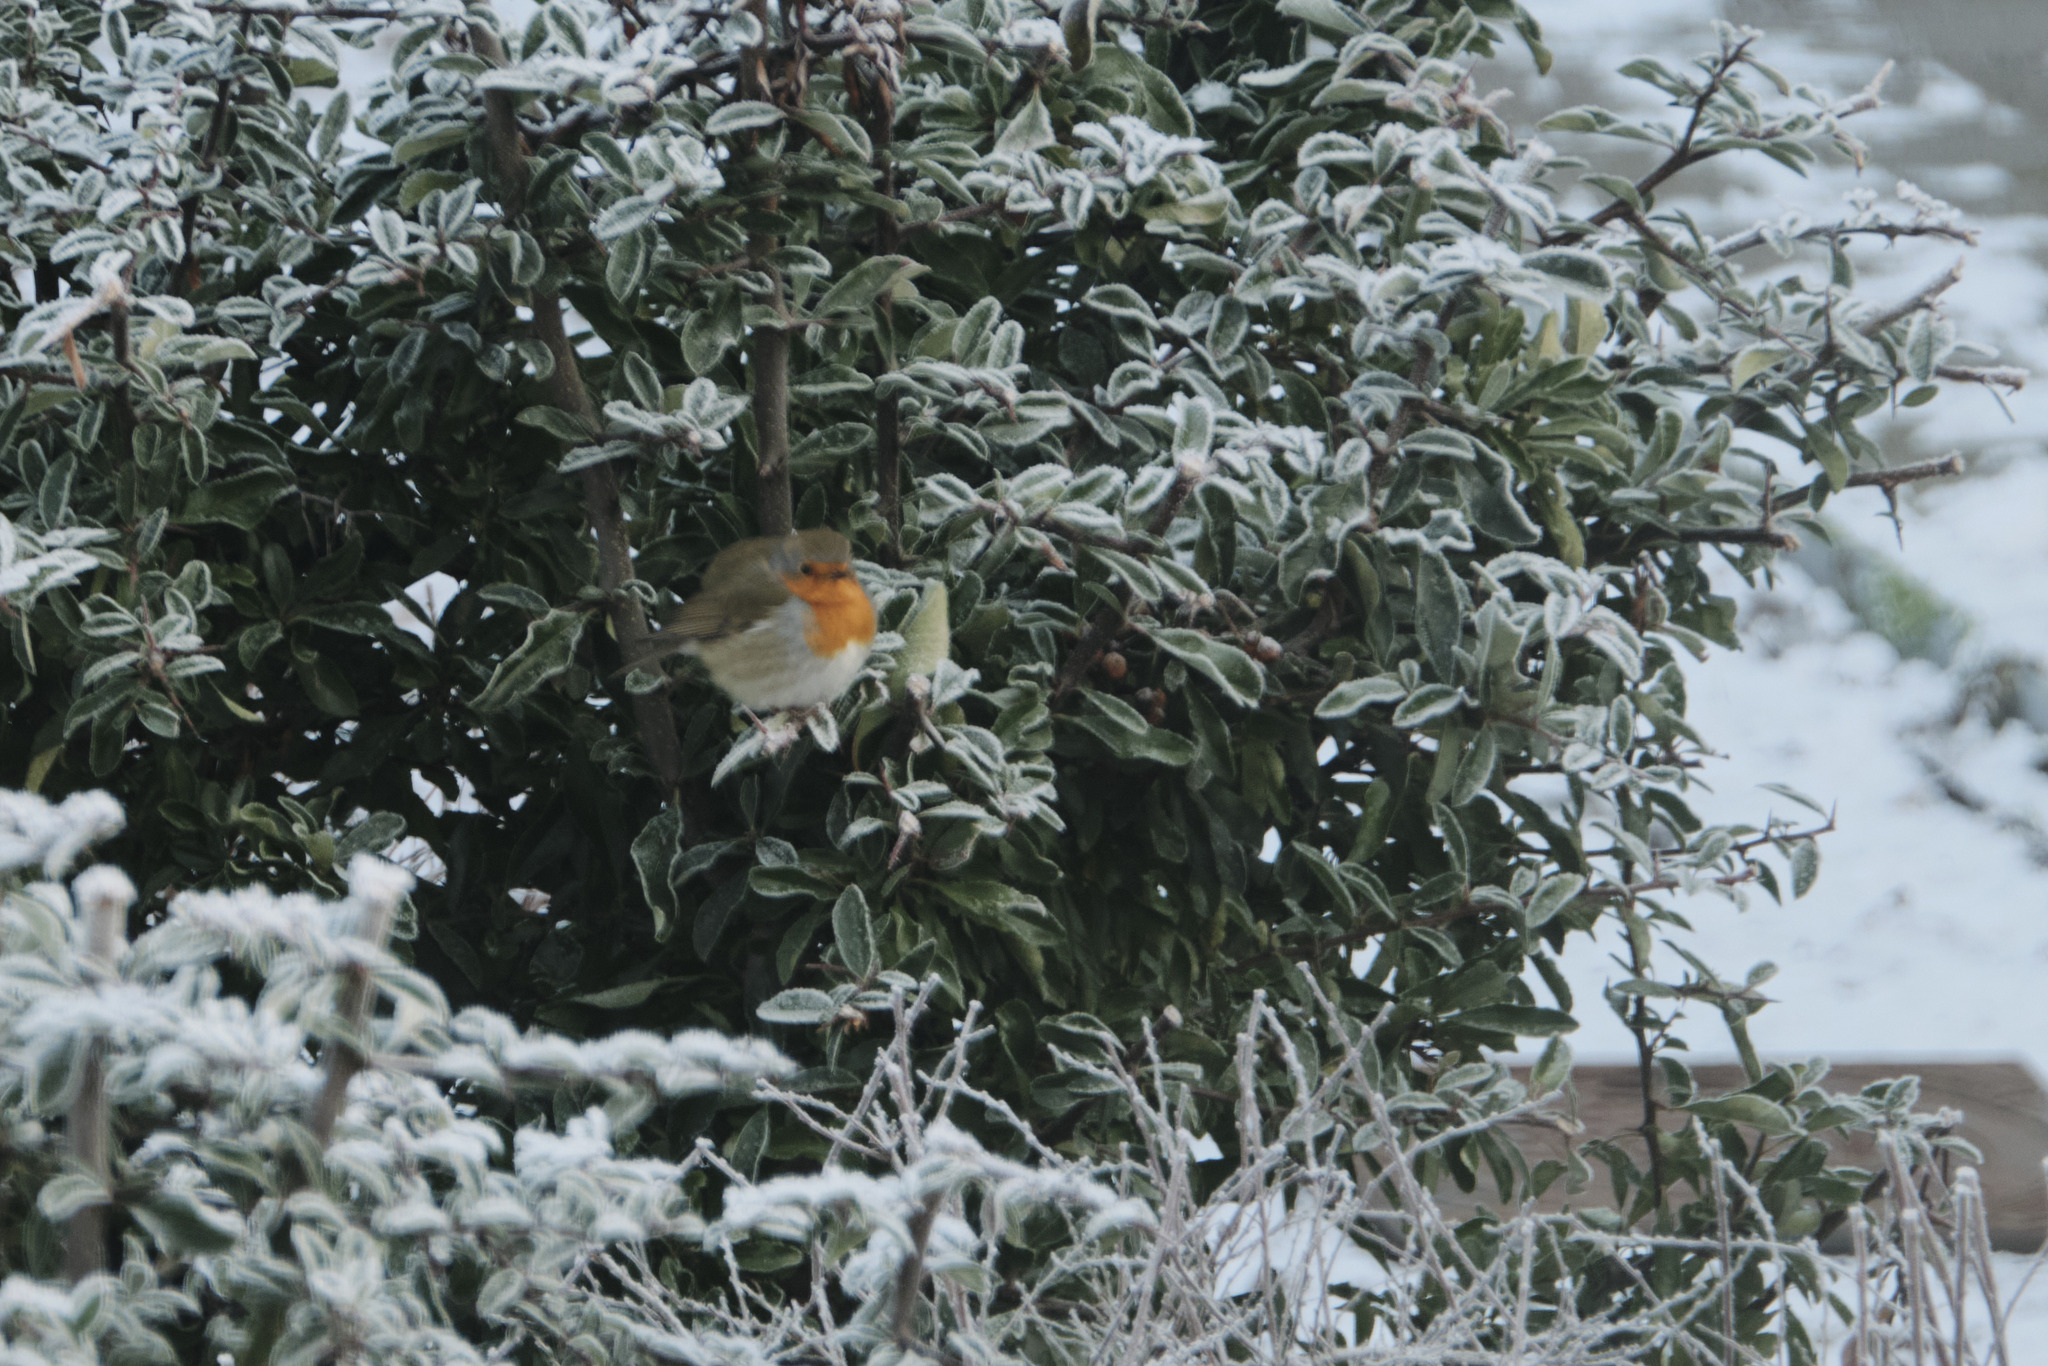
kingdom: Animalia
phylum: Chordata
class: Aves
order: Passeriformes
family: Muscicapidae
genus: Erithacus
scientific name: Erithacus rubecula
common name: European robin
